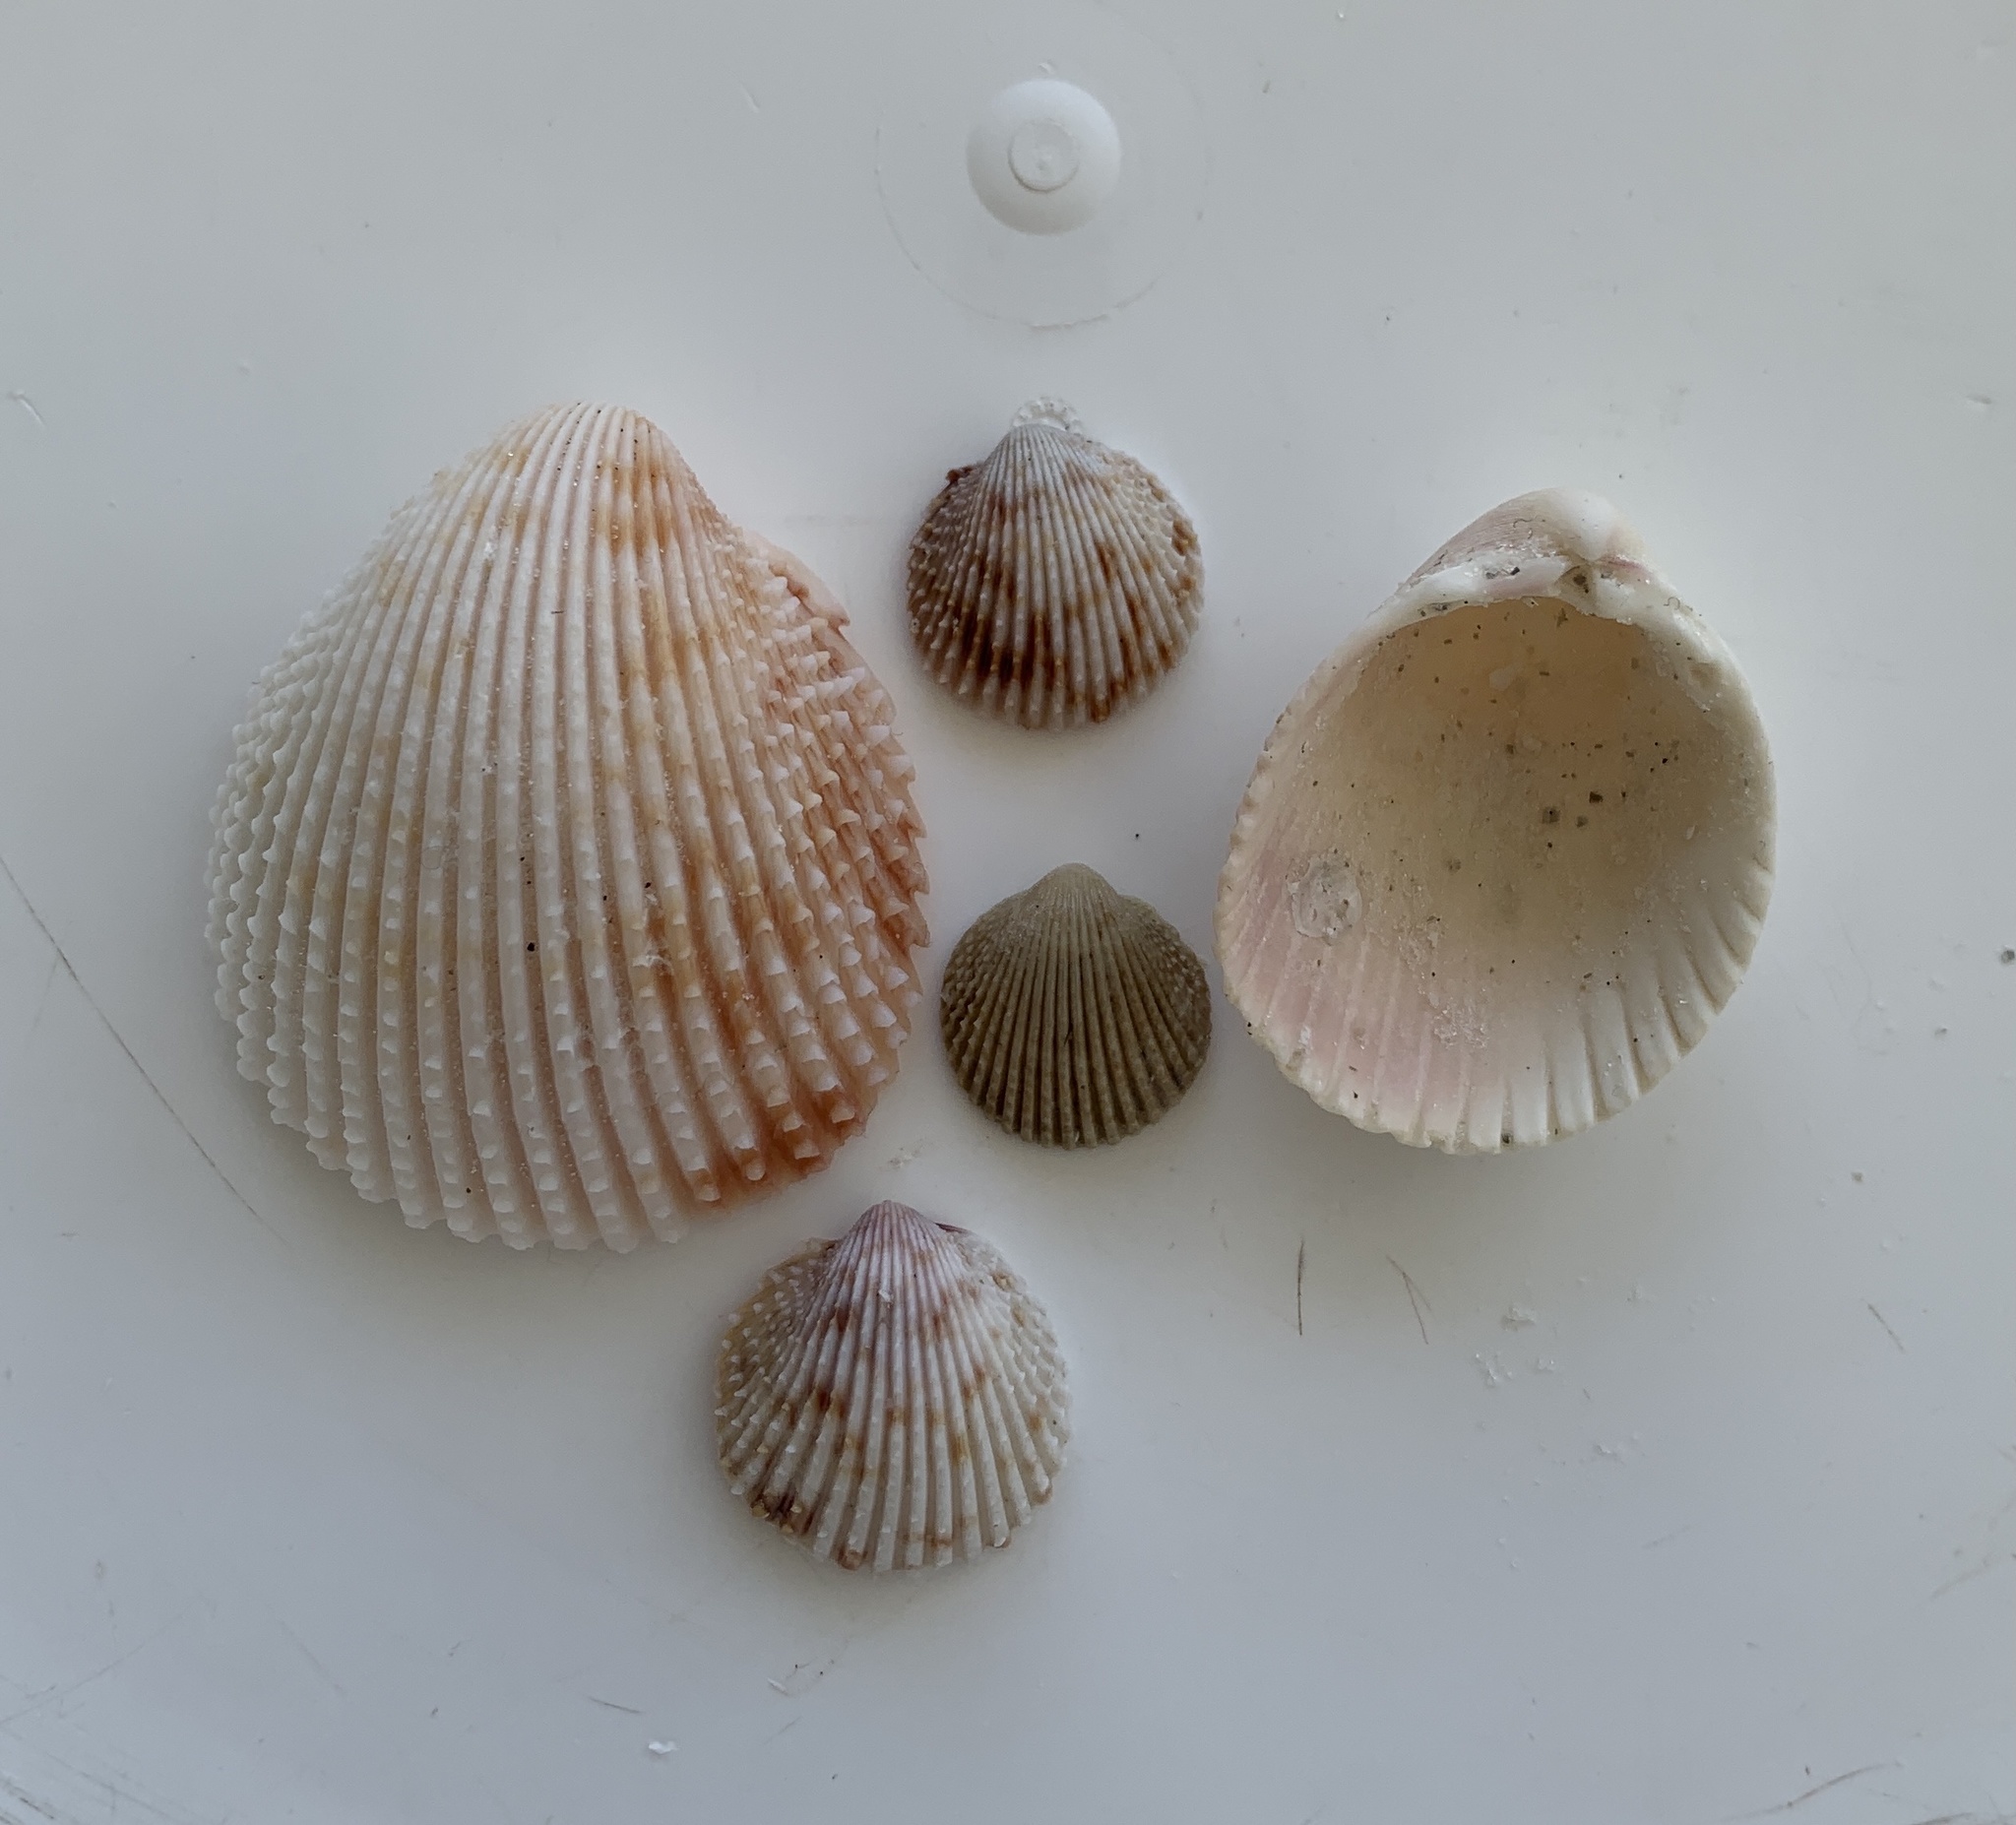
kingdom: Animalia
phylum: Mollusca
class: Bivalvia
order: Cardiida
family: Cardiidae
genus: Trachycardium
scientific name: Trachycardium egmontianum
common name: Florida pricklycockle
